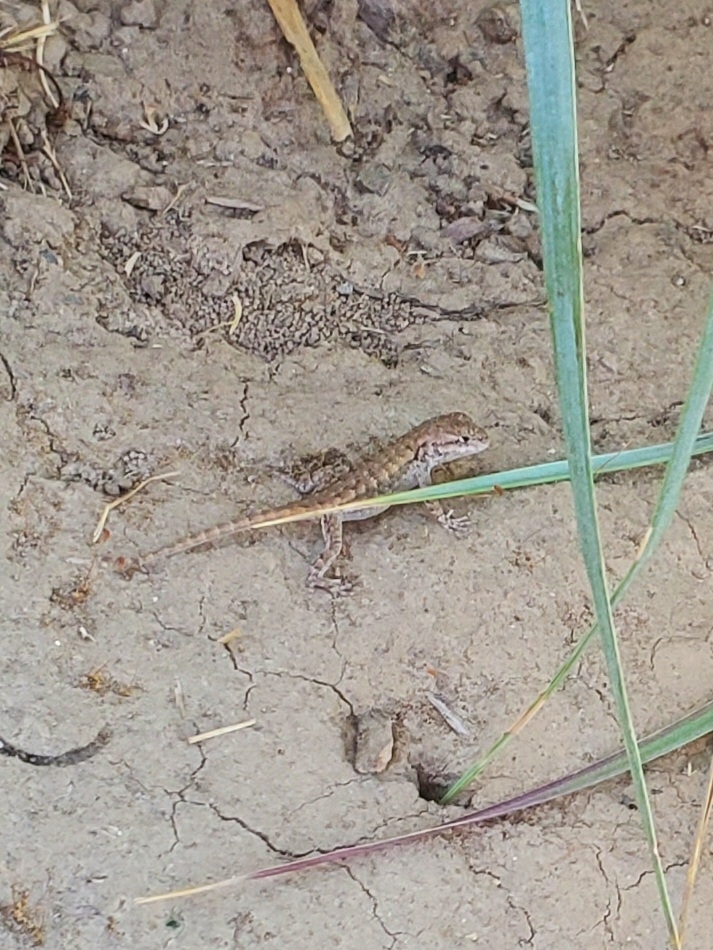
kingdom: Animalia
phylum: Chordata
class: Squamata
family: Phrynosomatidae
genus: Sceloporus
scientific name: Sceloporus occidentalis
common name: Western fence lizard
